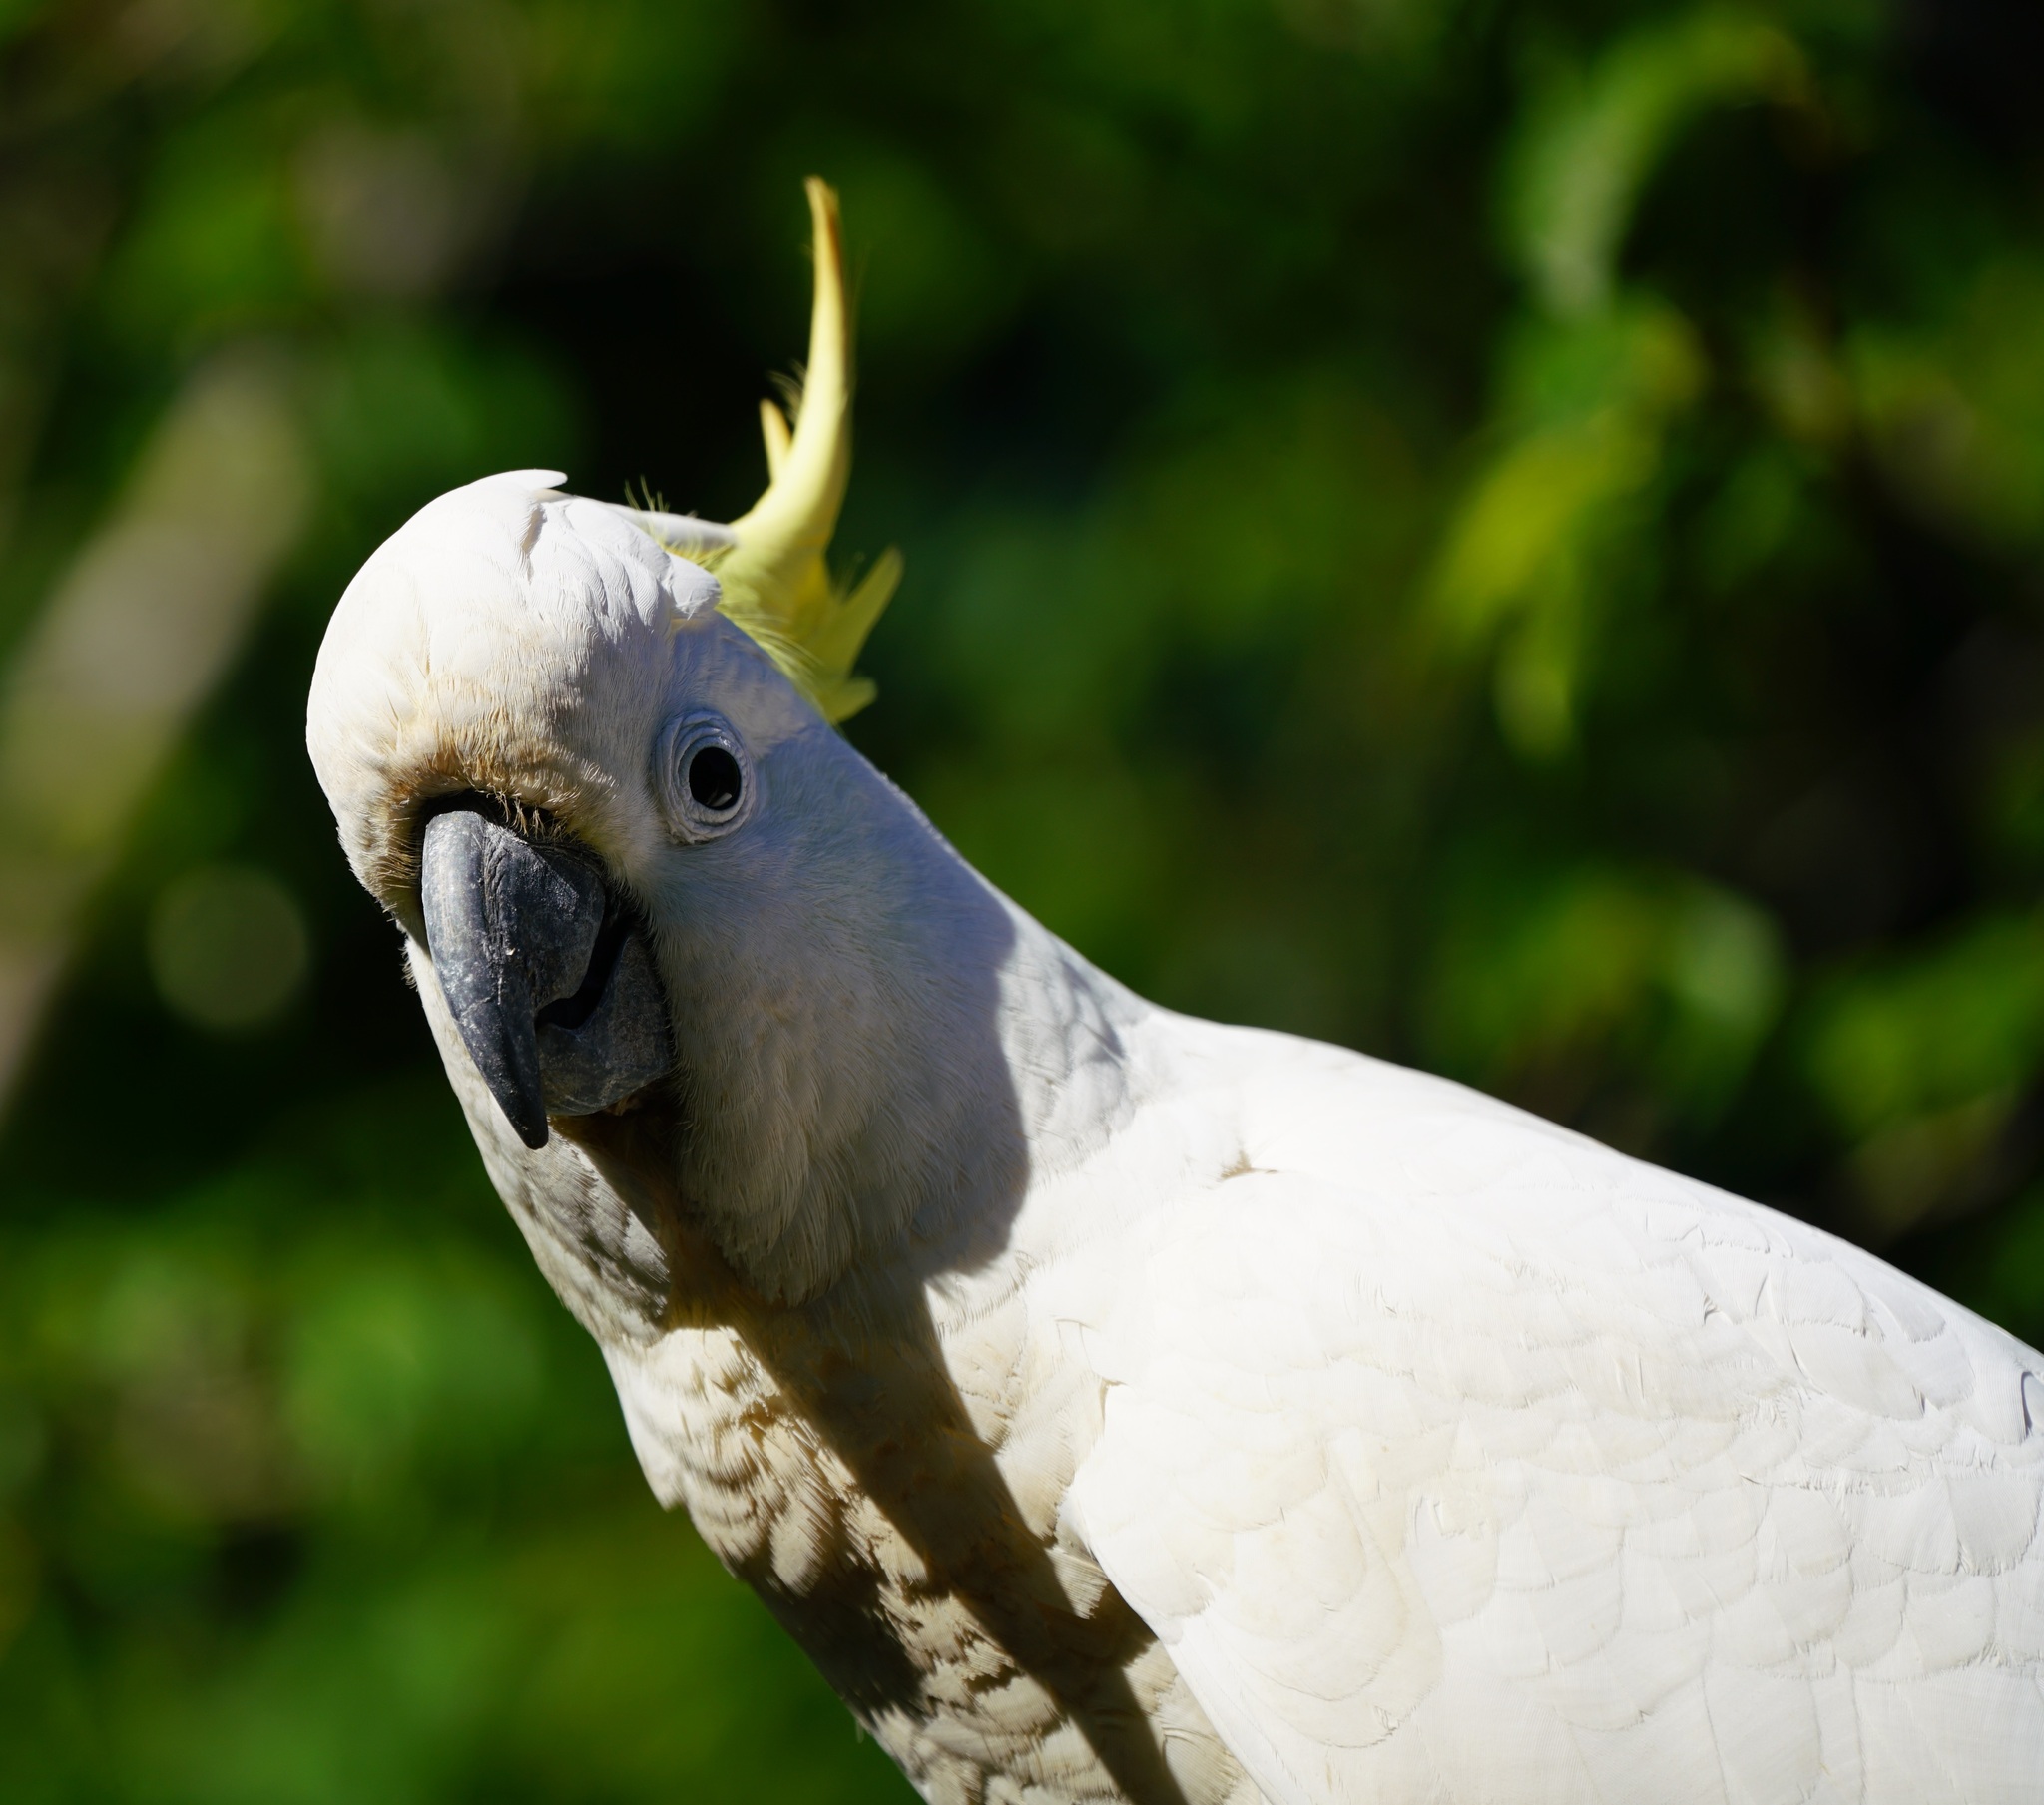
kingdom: Animalia
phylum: Chordata
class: Aves
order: Psittaciformes
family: Psittacidae
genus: Cacatua
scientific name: Cacatua galerita
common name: Sulphur-crested cockatoo
